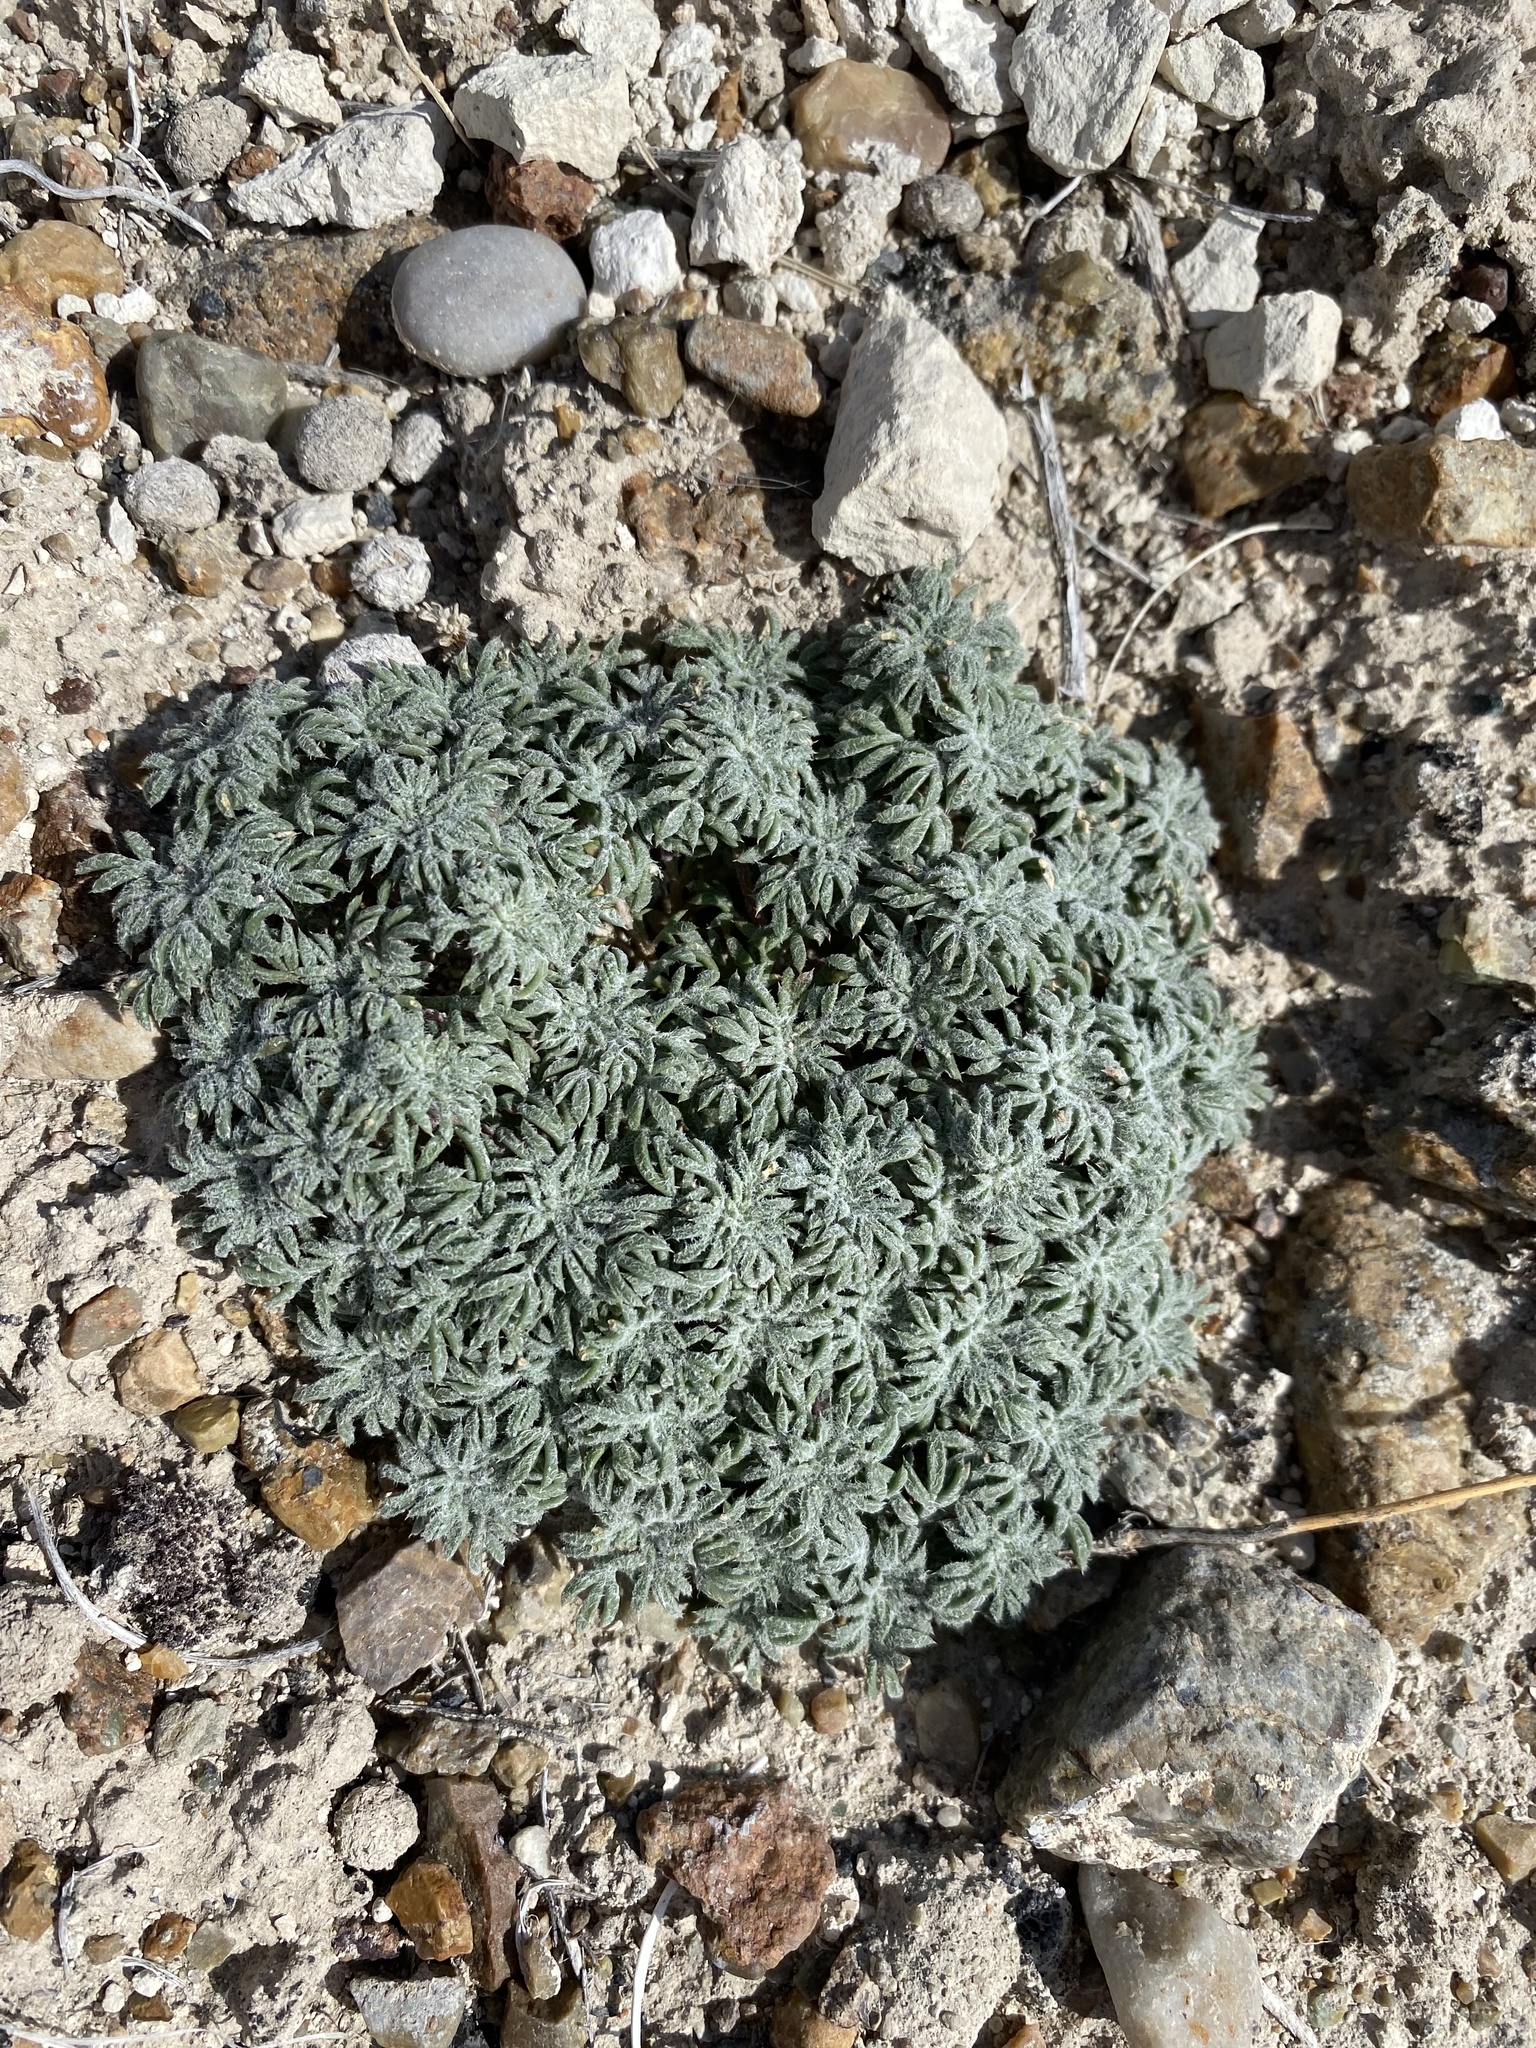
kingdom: Plantae
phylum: Tracheophyta
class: Magnoliopsida
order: Ericales
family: Polemoniaceae
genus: Ipomopsis
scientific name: Ipomopsis congesta
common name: Ball-head gilia
